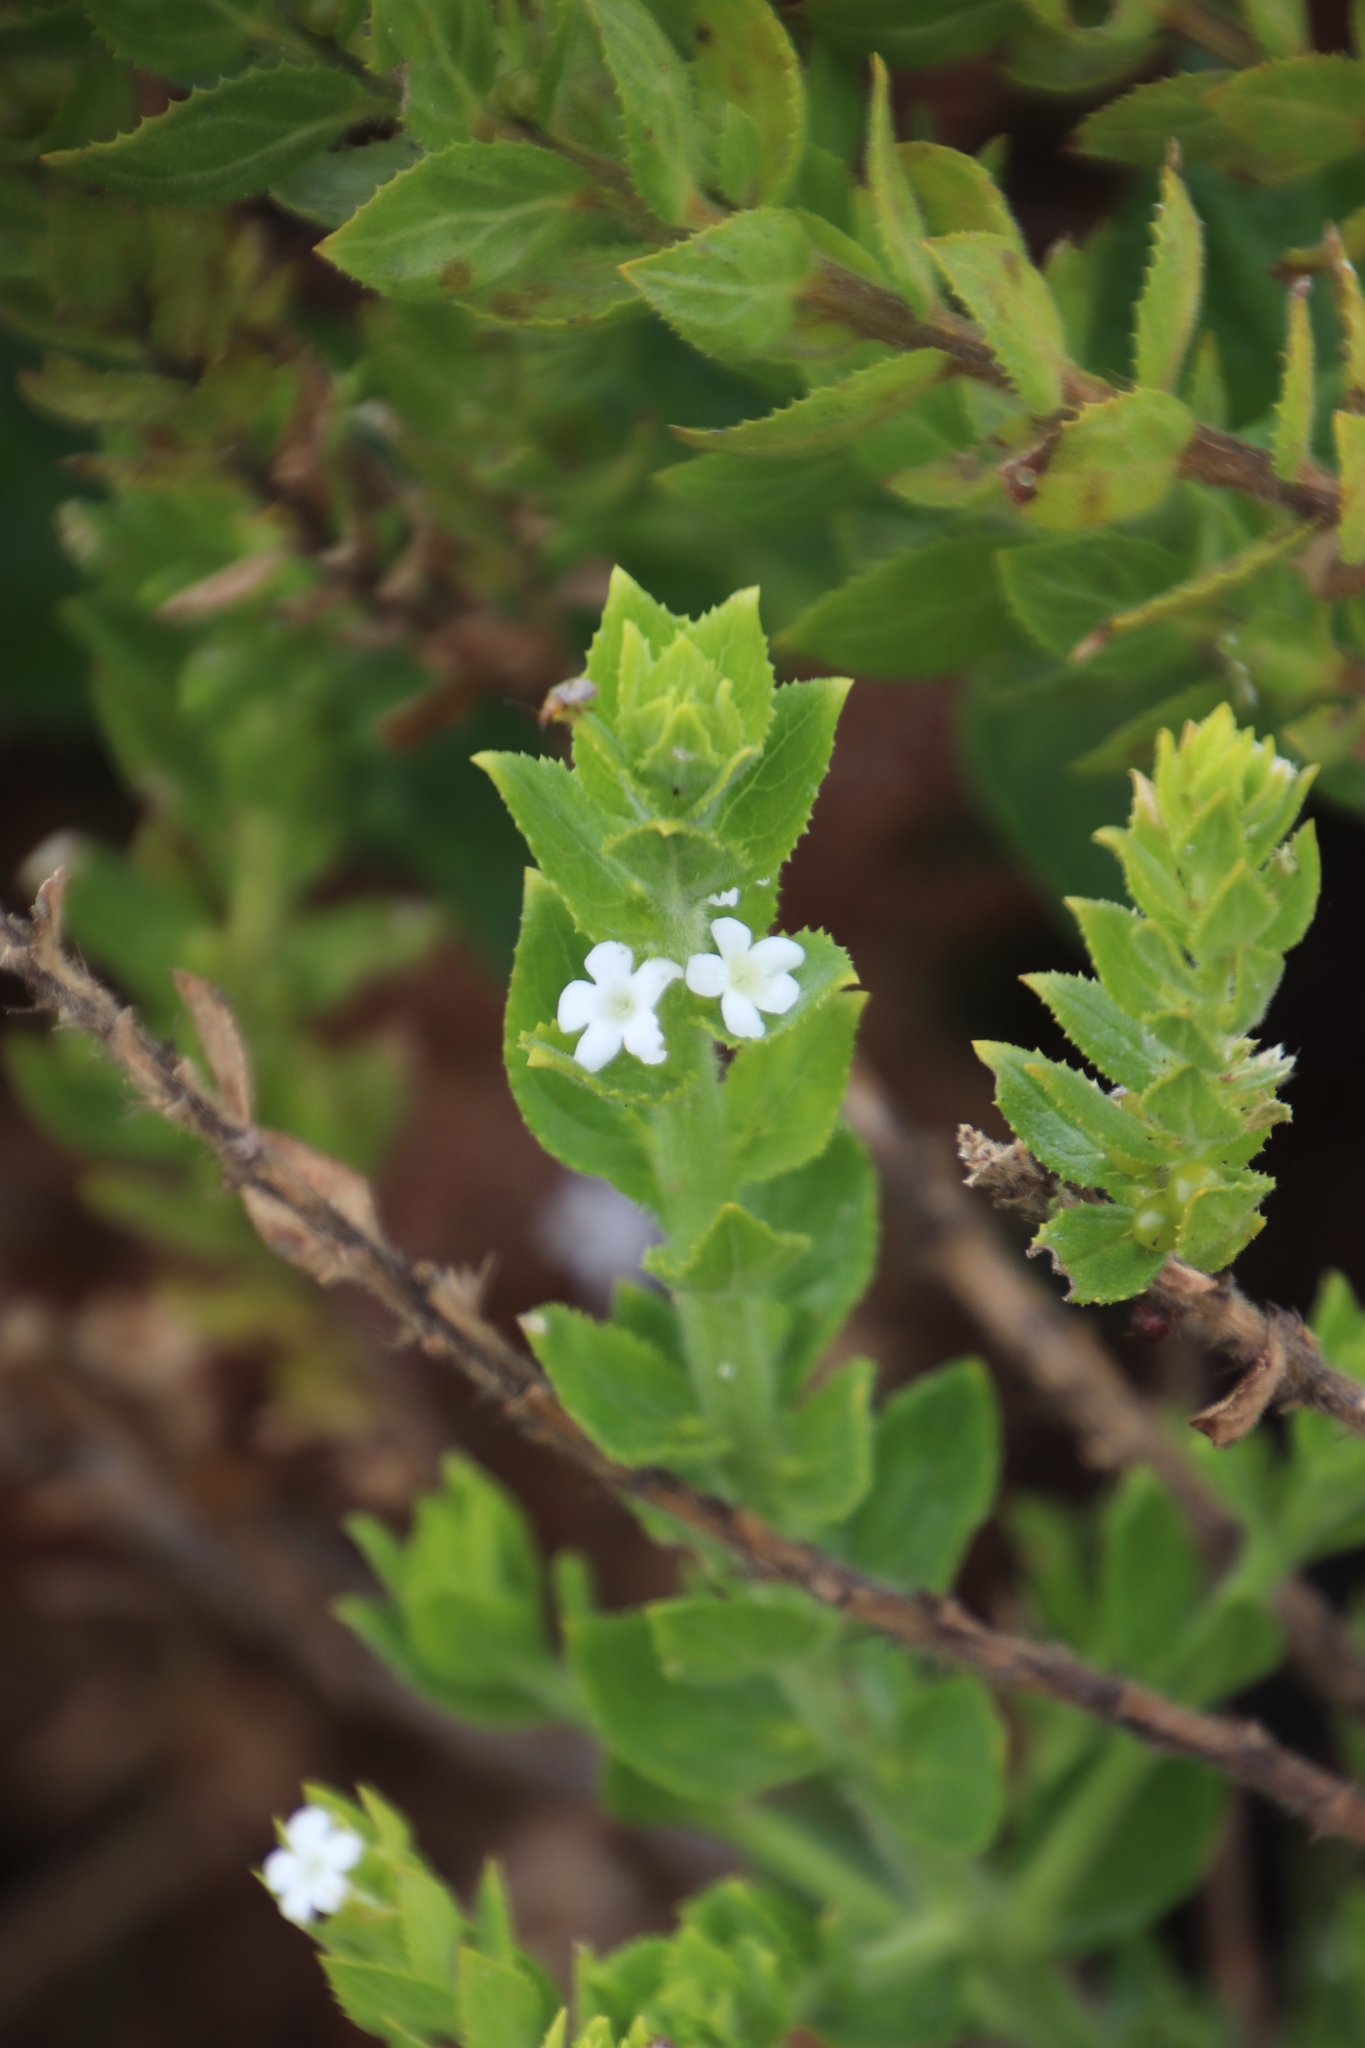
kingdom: Plantae
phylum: Tracheophyta
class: Magnoliopsida
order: Lamiales
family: Scrophulariaceae
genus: Oftia
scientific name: Oftia africana
